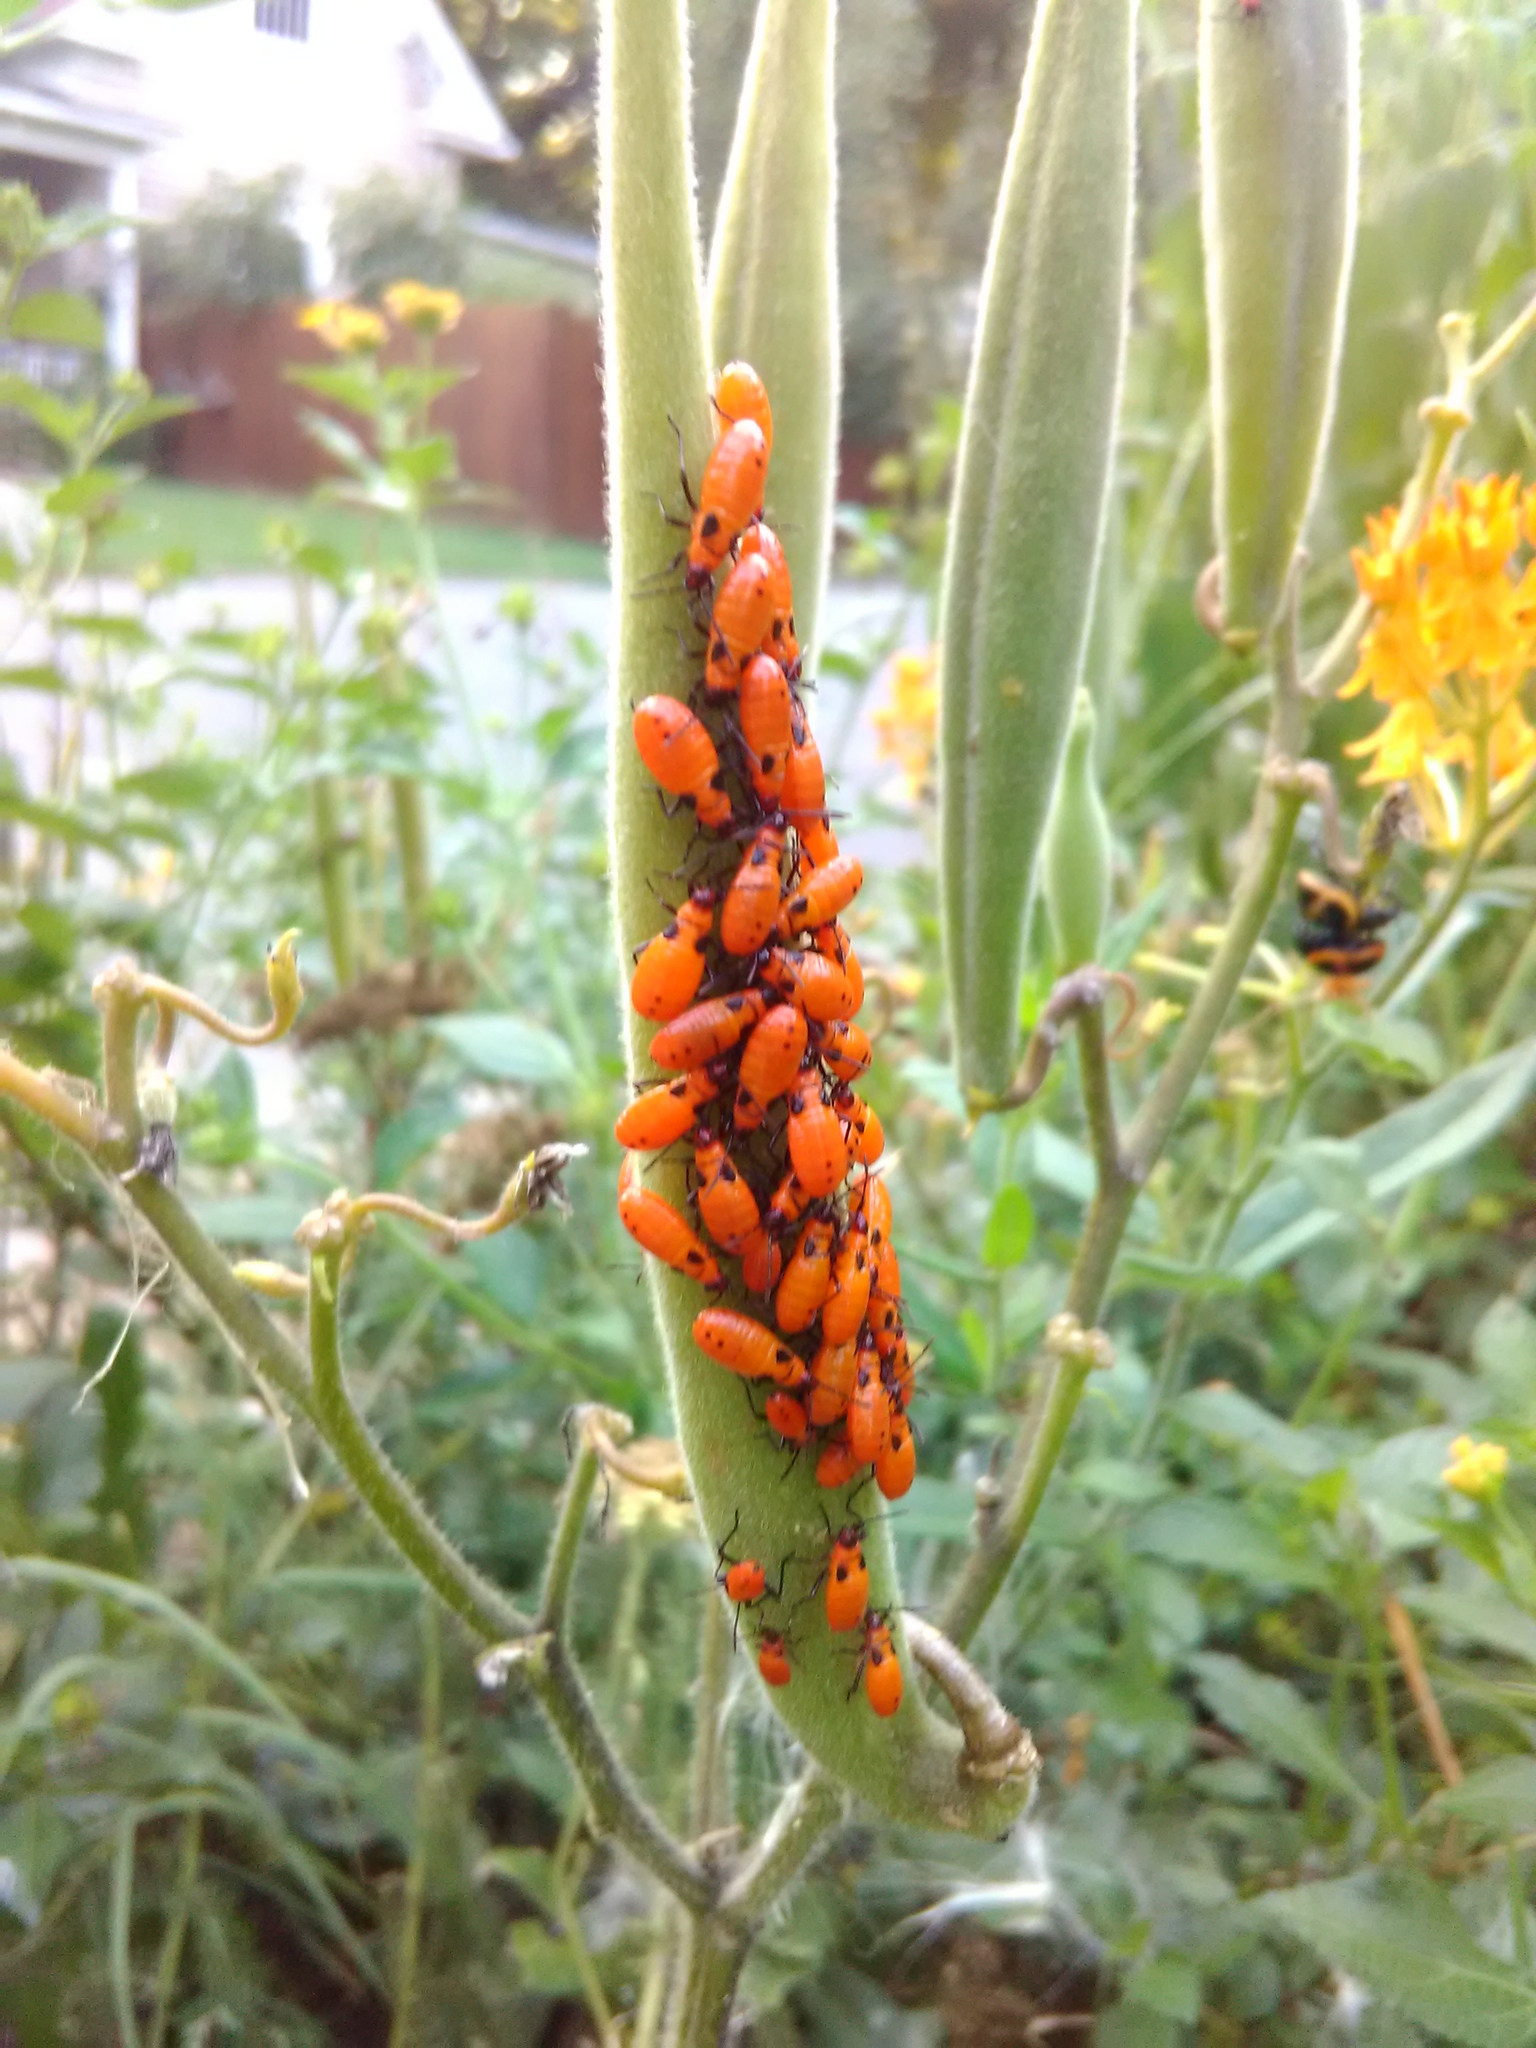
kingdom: Animalia
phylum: Arthropoda
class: Insecta
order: Hemiptera
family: Lygaeidae
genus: Oncopeltus
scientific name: Oncopeltus fasciatus
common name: Large milkweed bug
